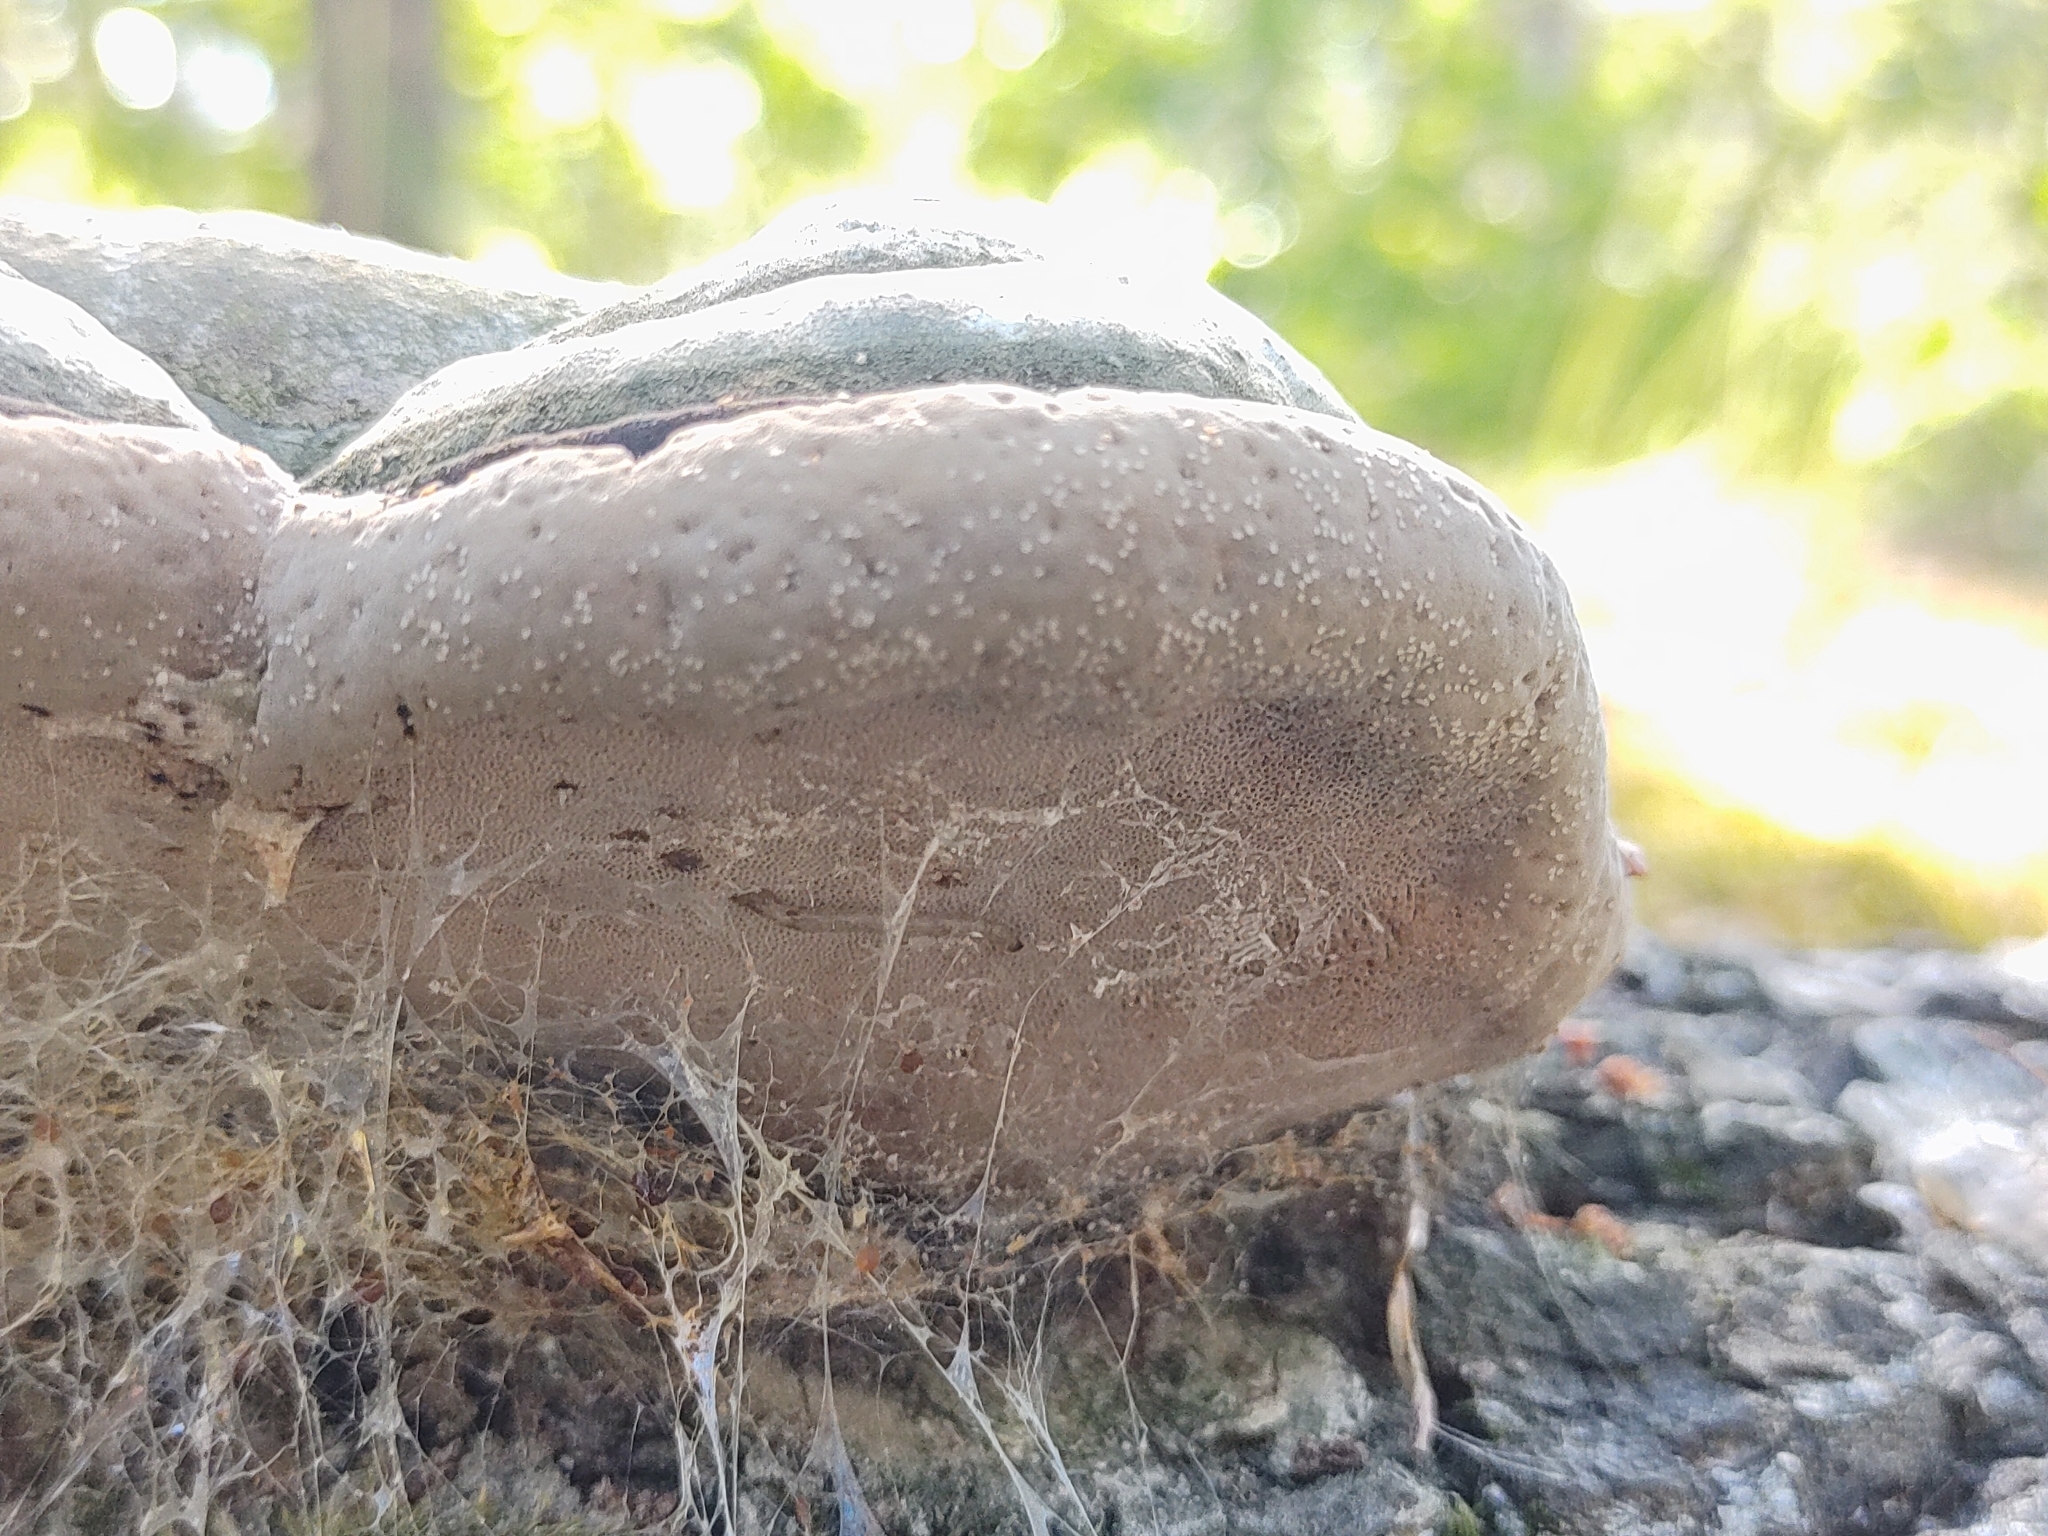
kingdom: Fungi
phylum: Basidiomycota
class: Agaricomycetes
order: Polyporales
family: Polyporaceae
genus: Fomes
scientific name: Fomes fomentarius
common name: Hoof fungus
